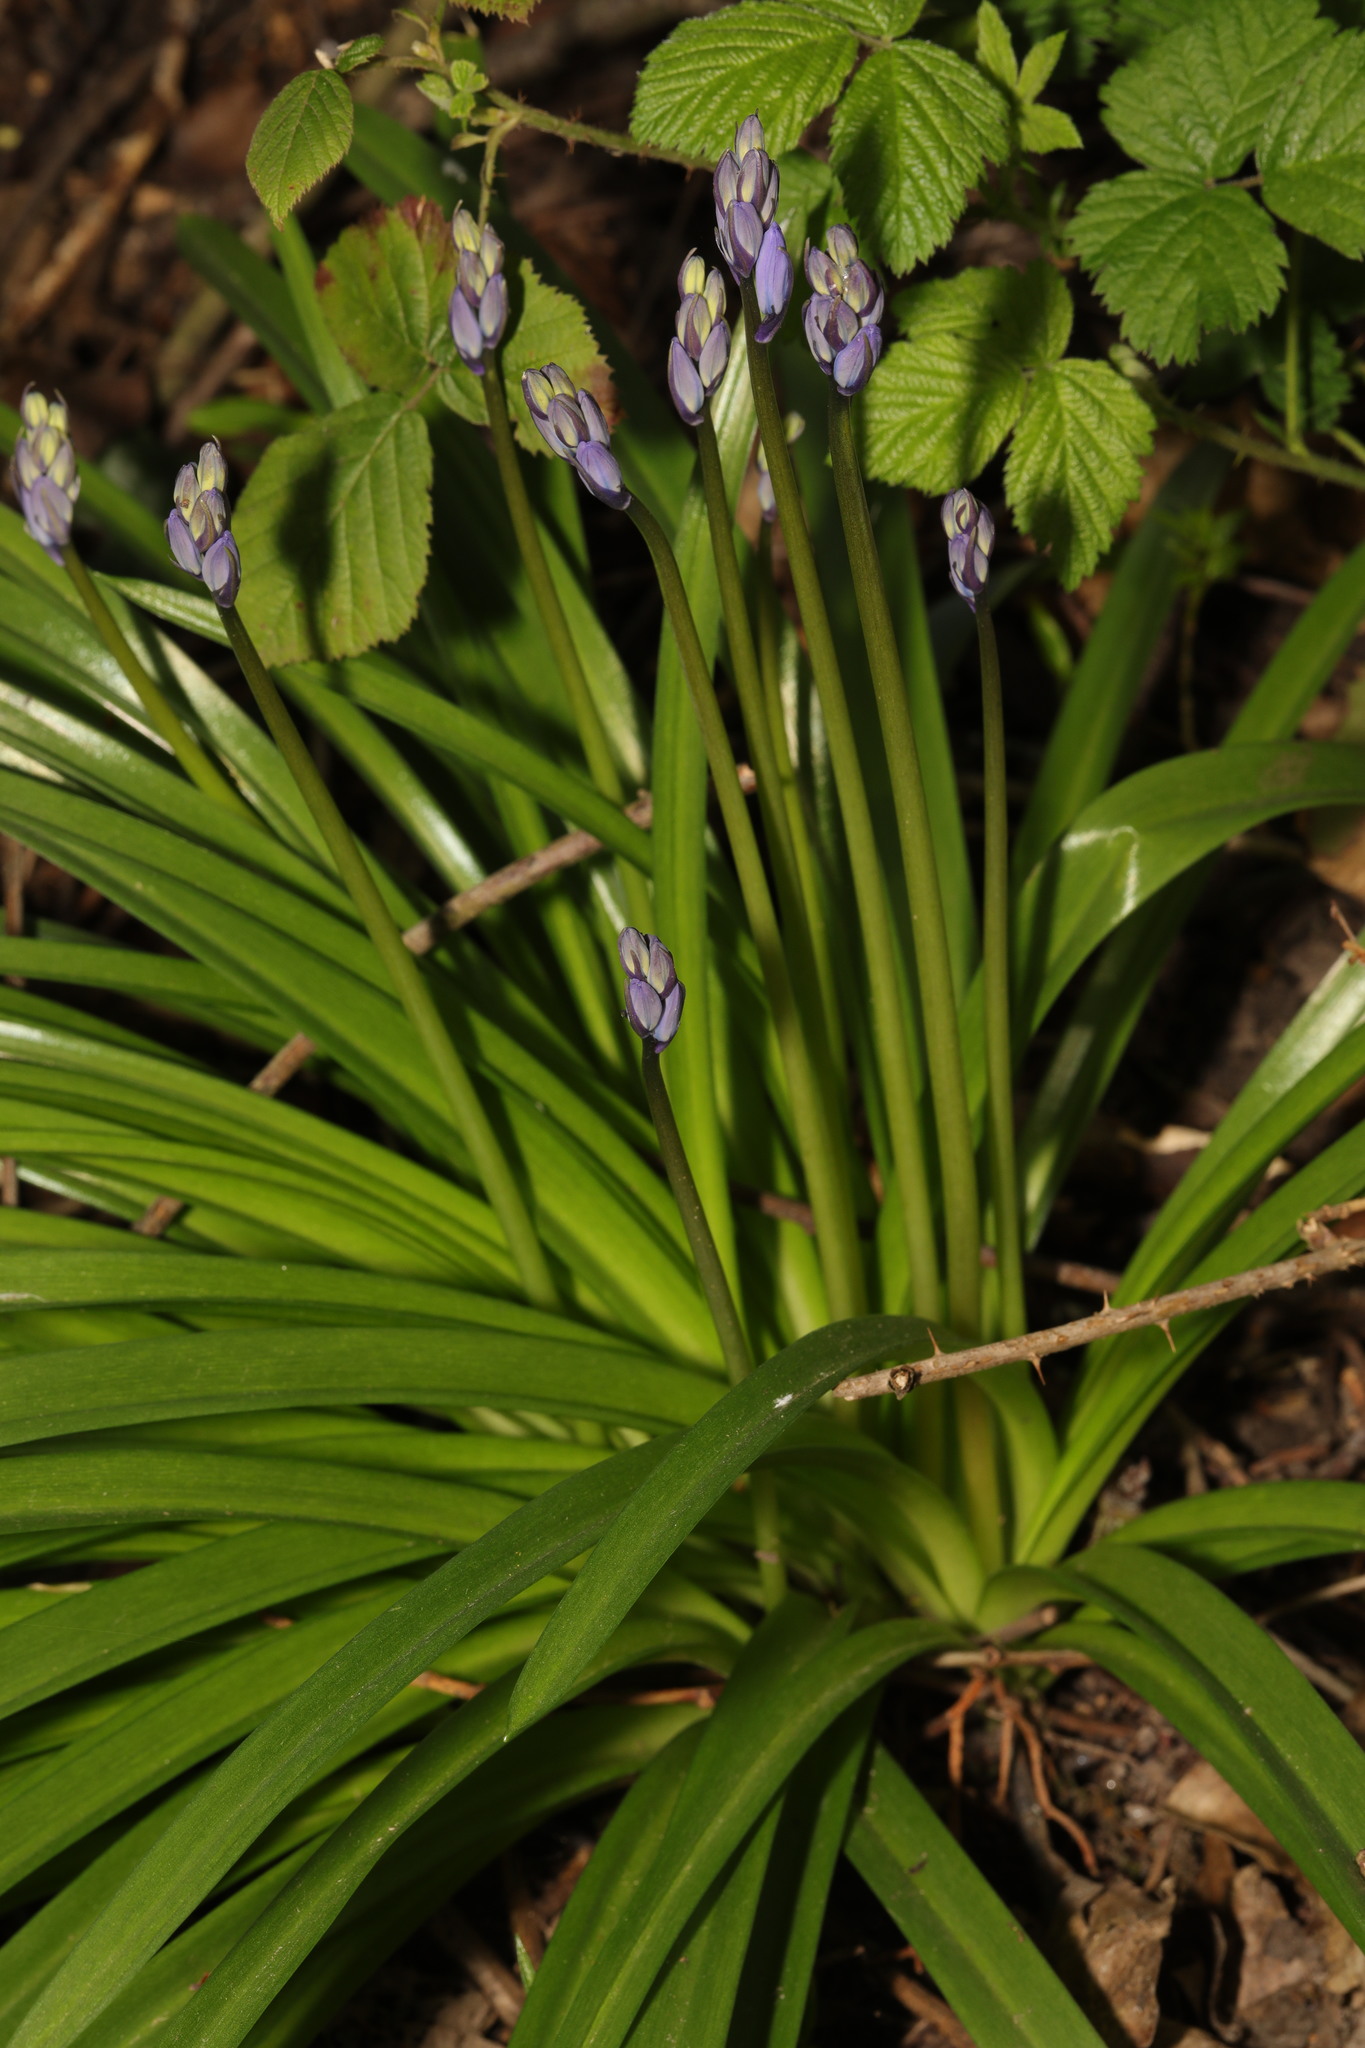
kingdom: Plantae
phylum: Tracheophyta
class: Liliopsida
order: Asparagales
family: Asparagaceae
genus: Hyacinthoides
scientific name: Hyacinthoides massartiana
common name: Hyacinthoides
